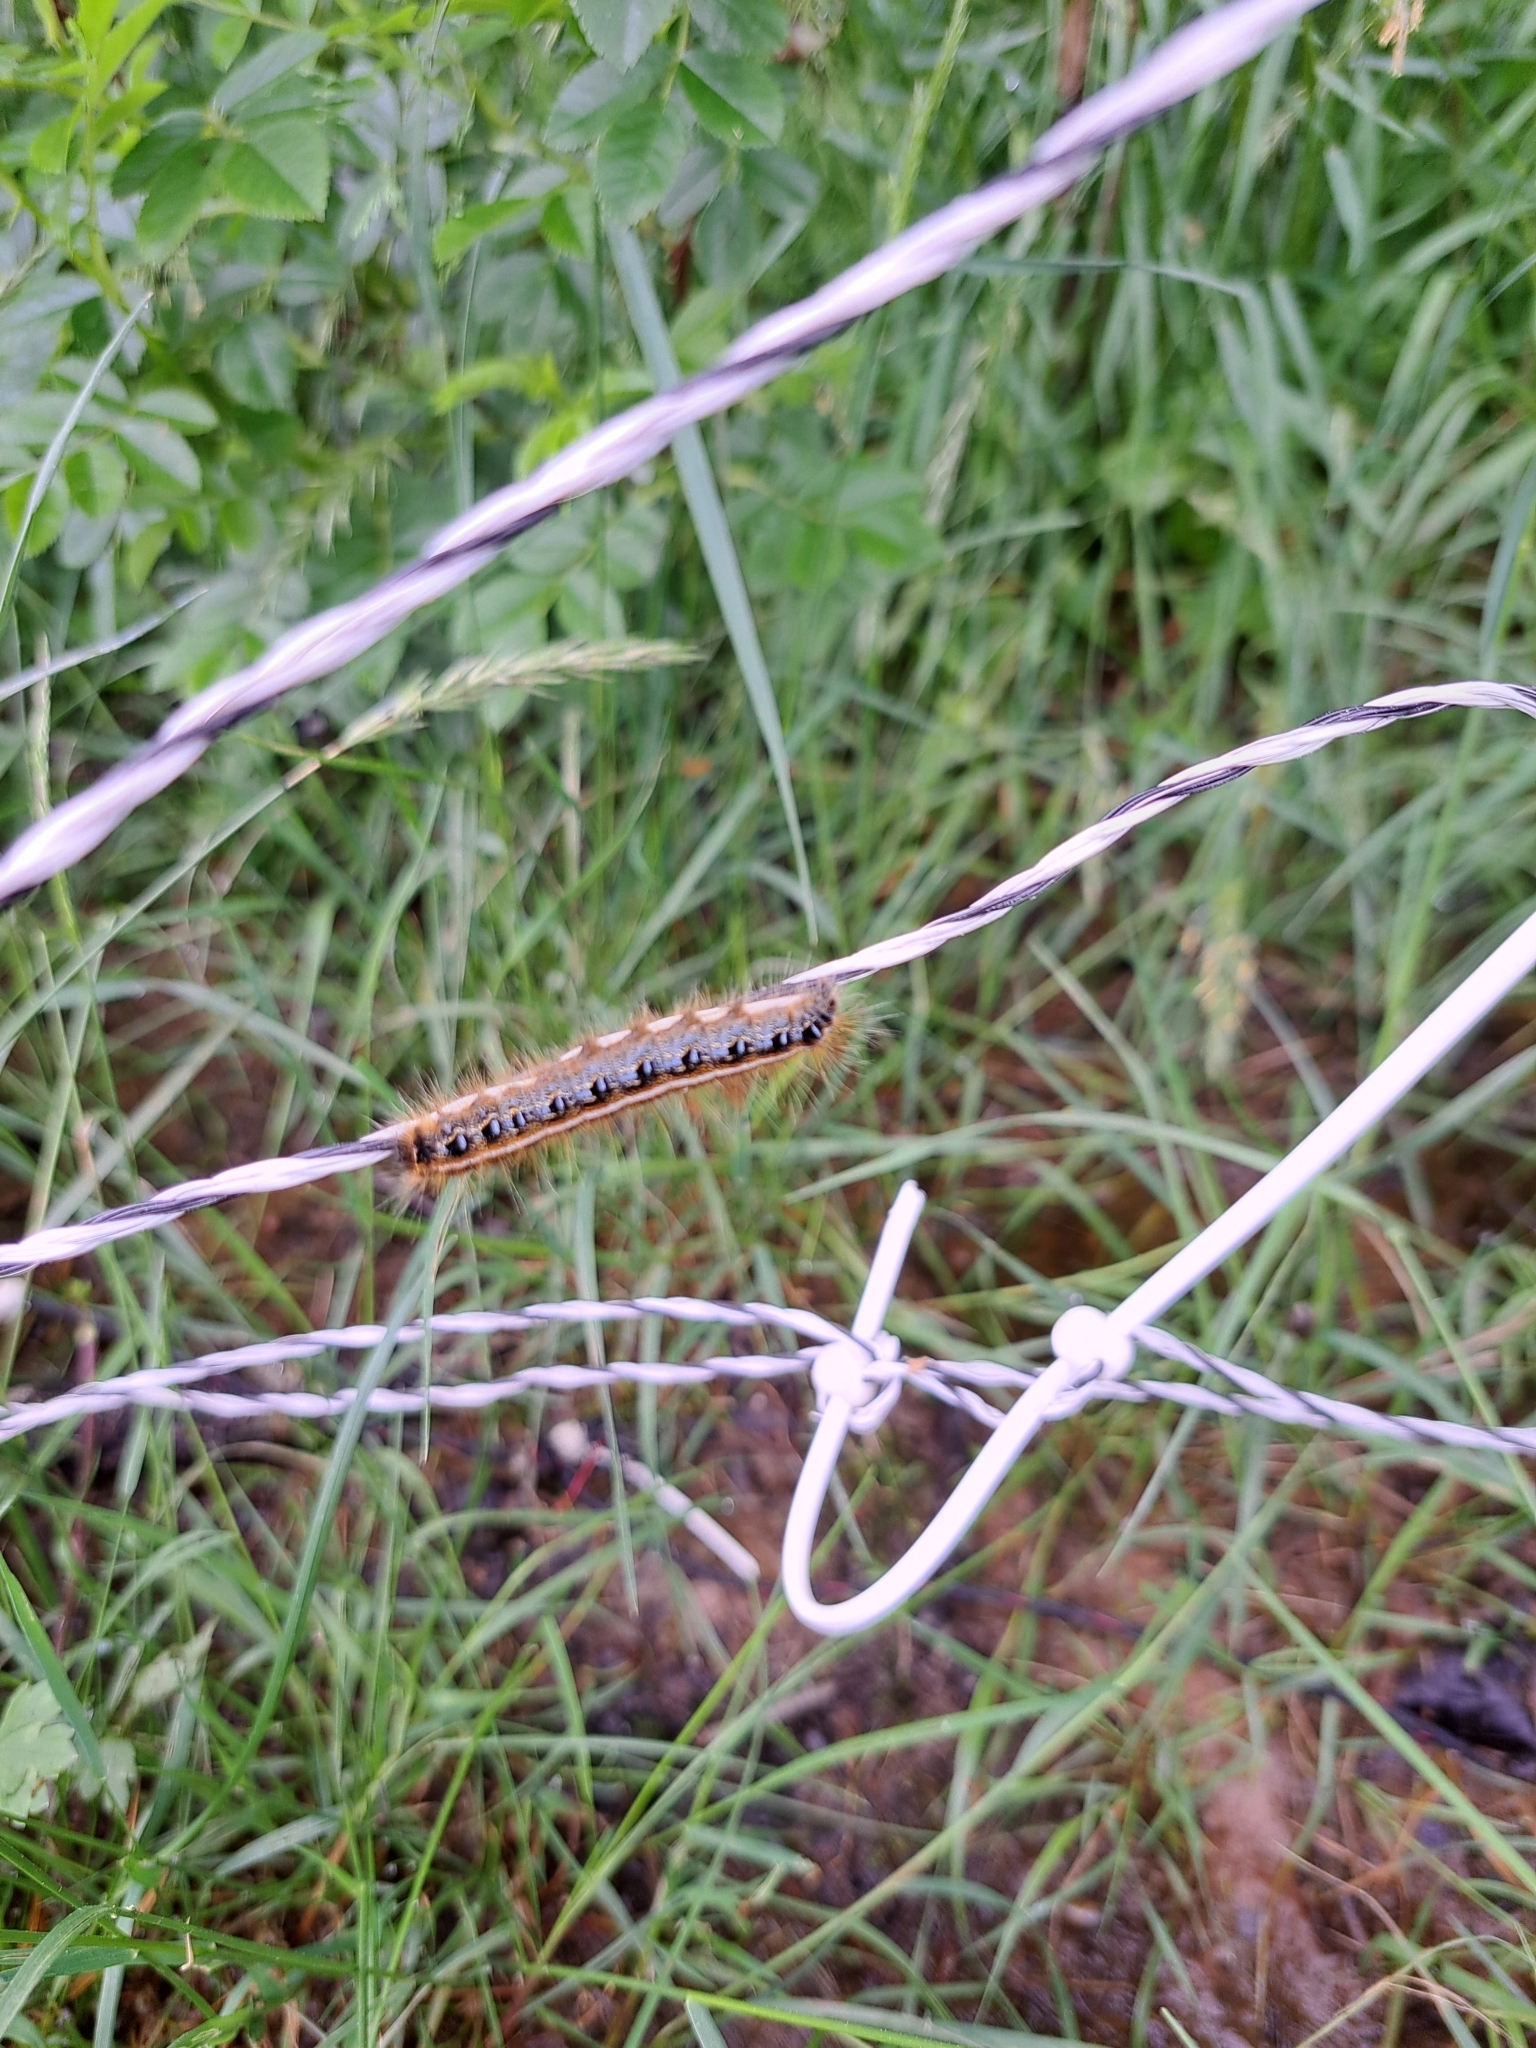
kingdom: Animalia
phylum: Arthropoda
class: Insecta
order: Lepidoptera
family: Lasiocampidae
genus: Malacosoma
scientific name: Malacosoma americana
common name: Eastern tent caterpillar moth
